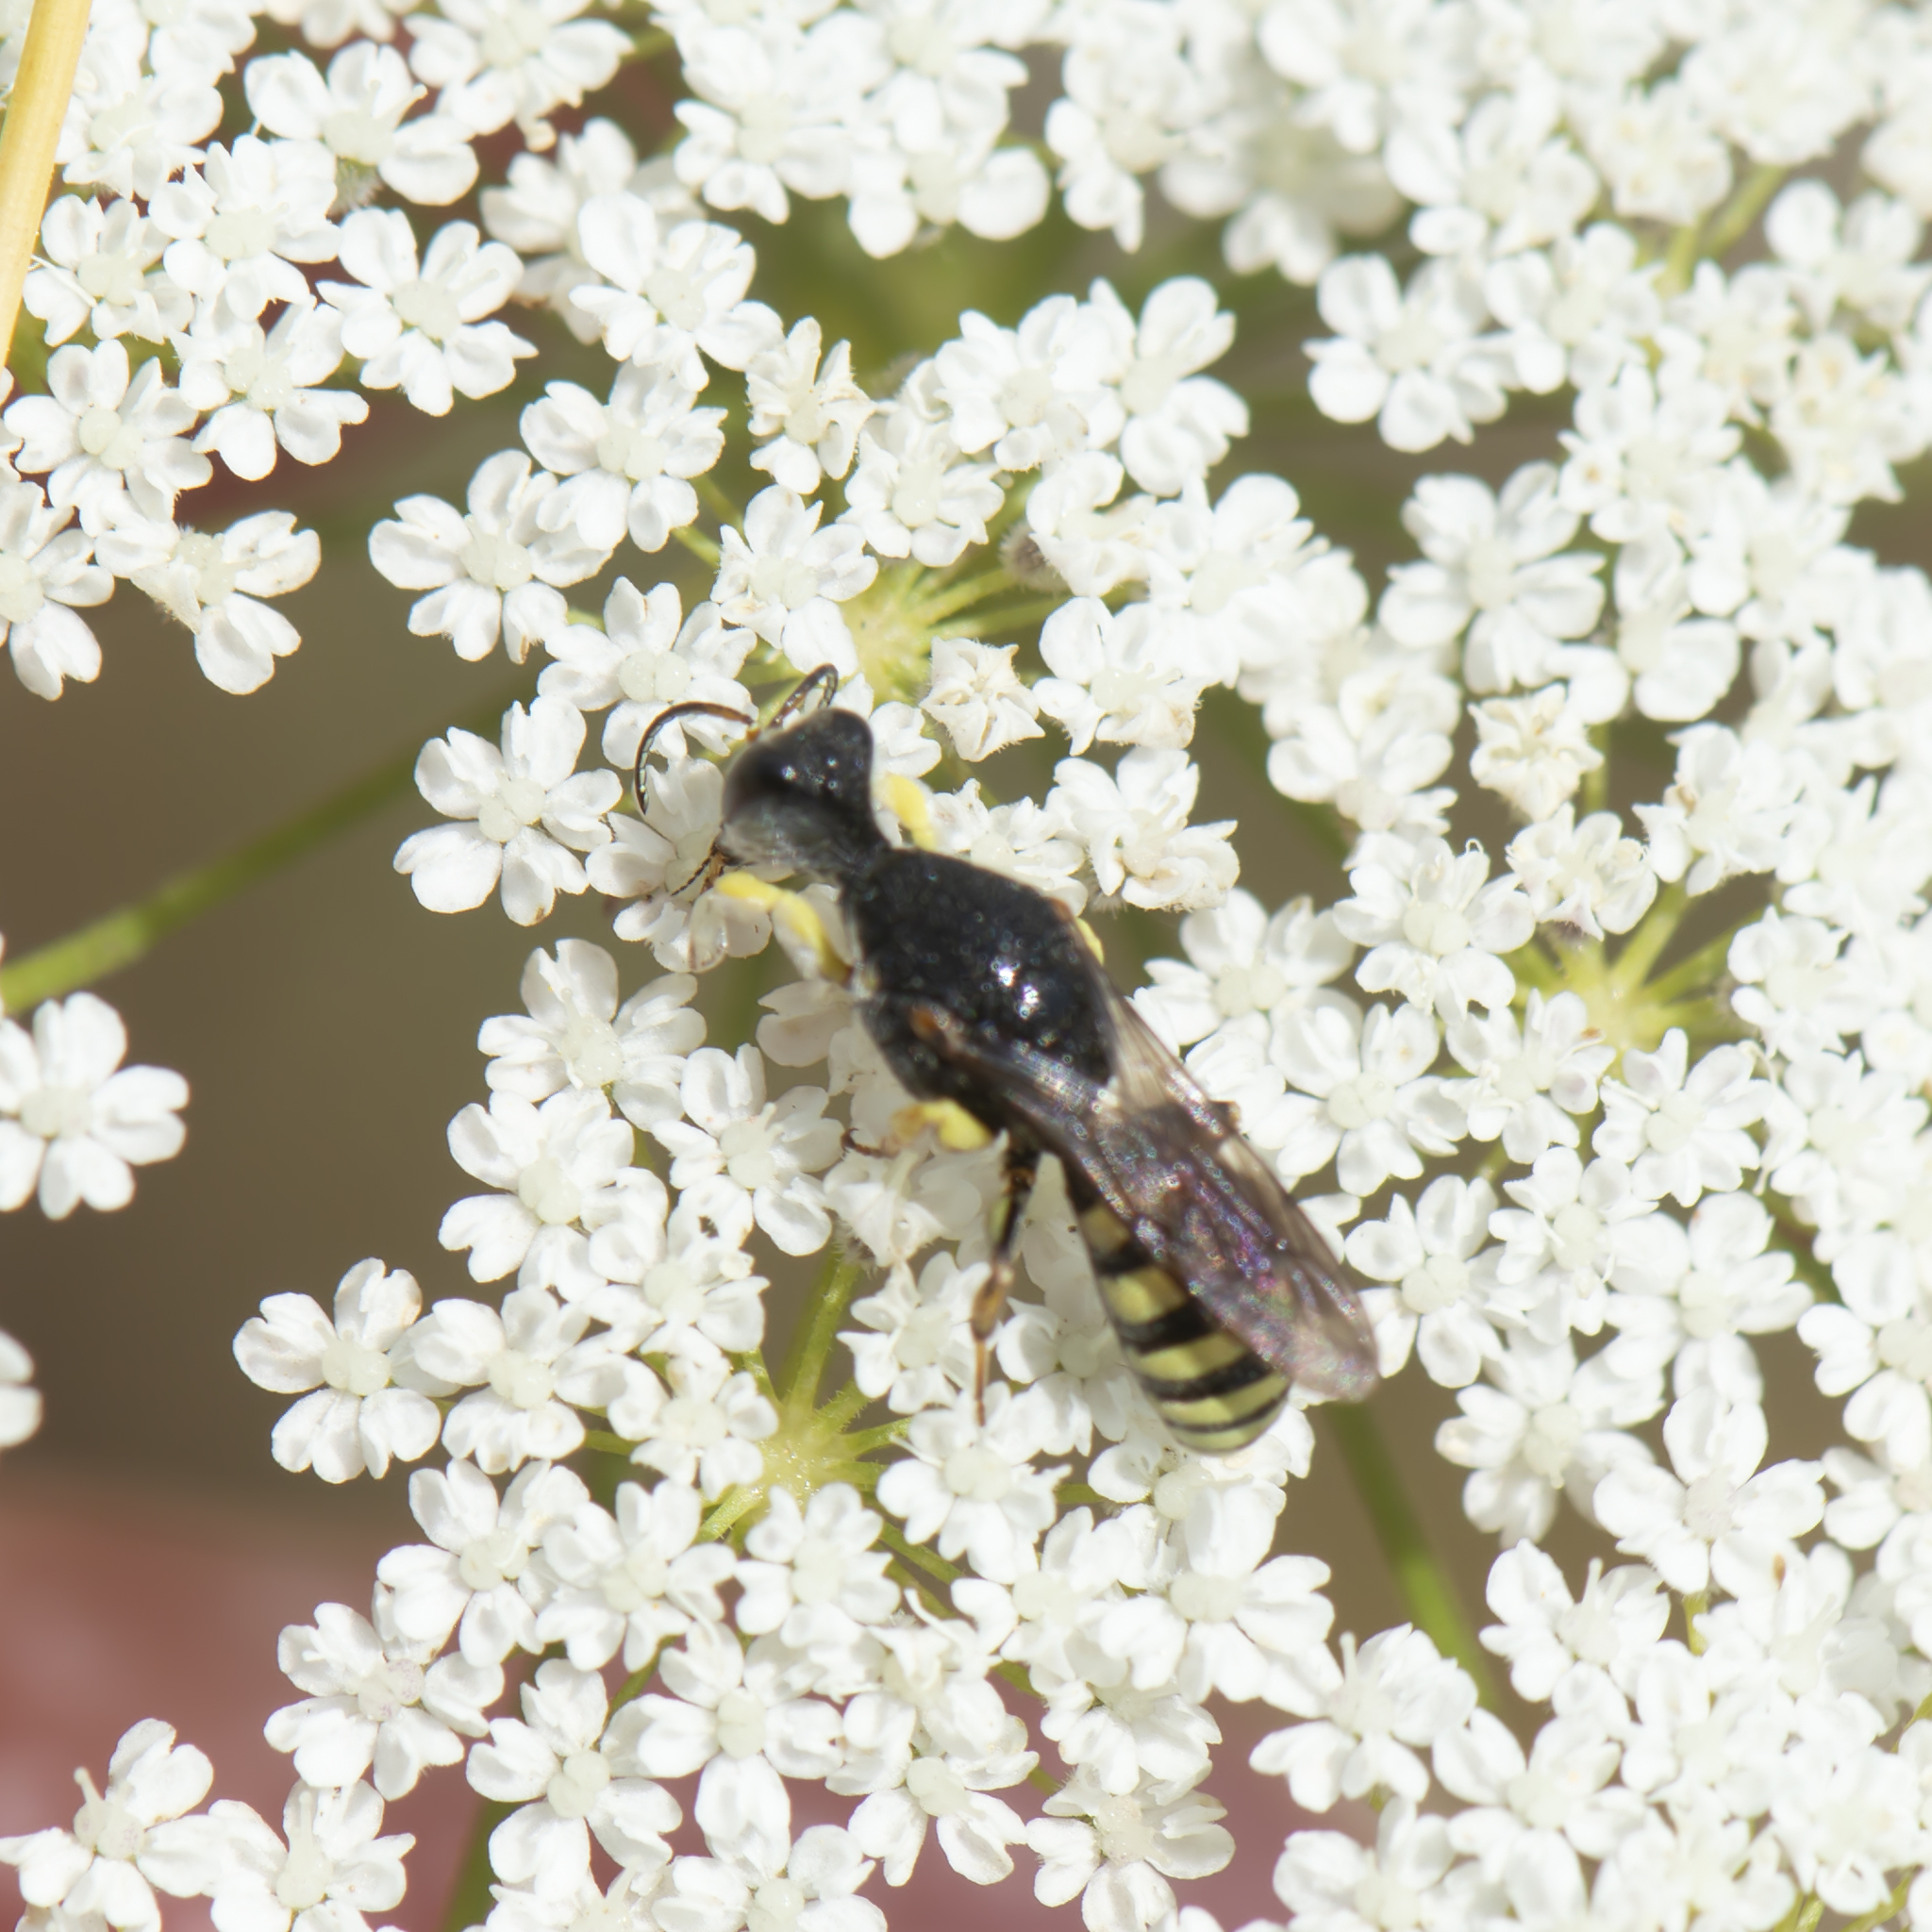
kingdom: Animalia
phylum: Arthropoda
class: Insecta
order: Hymenoptera
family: Crabronidae
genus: Lestica
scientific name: Lestica clypeata
